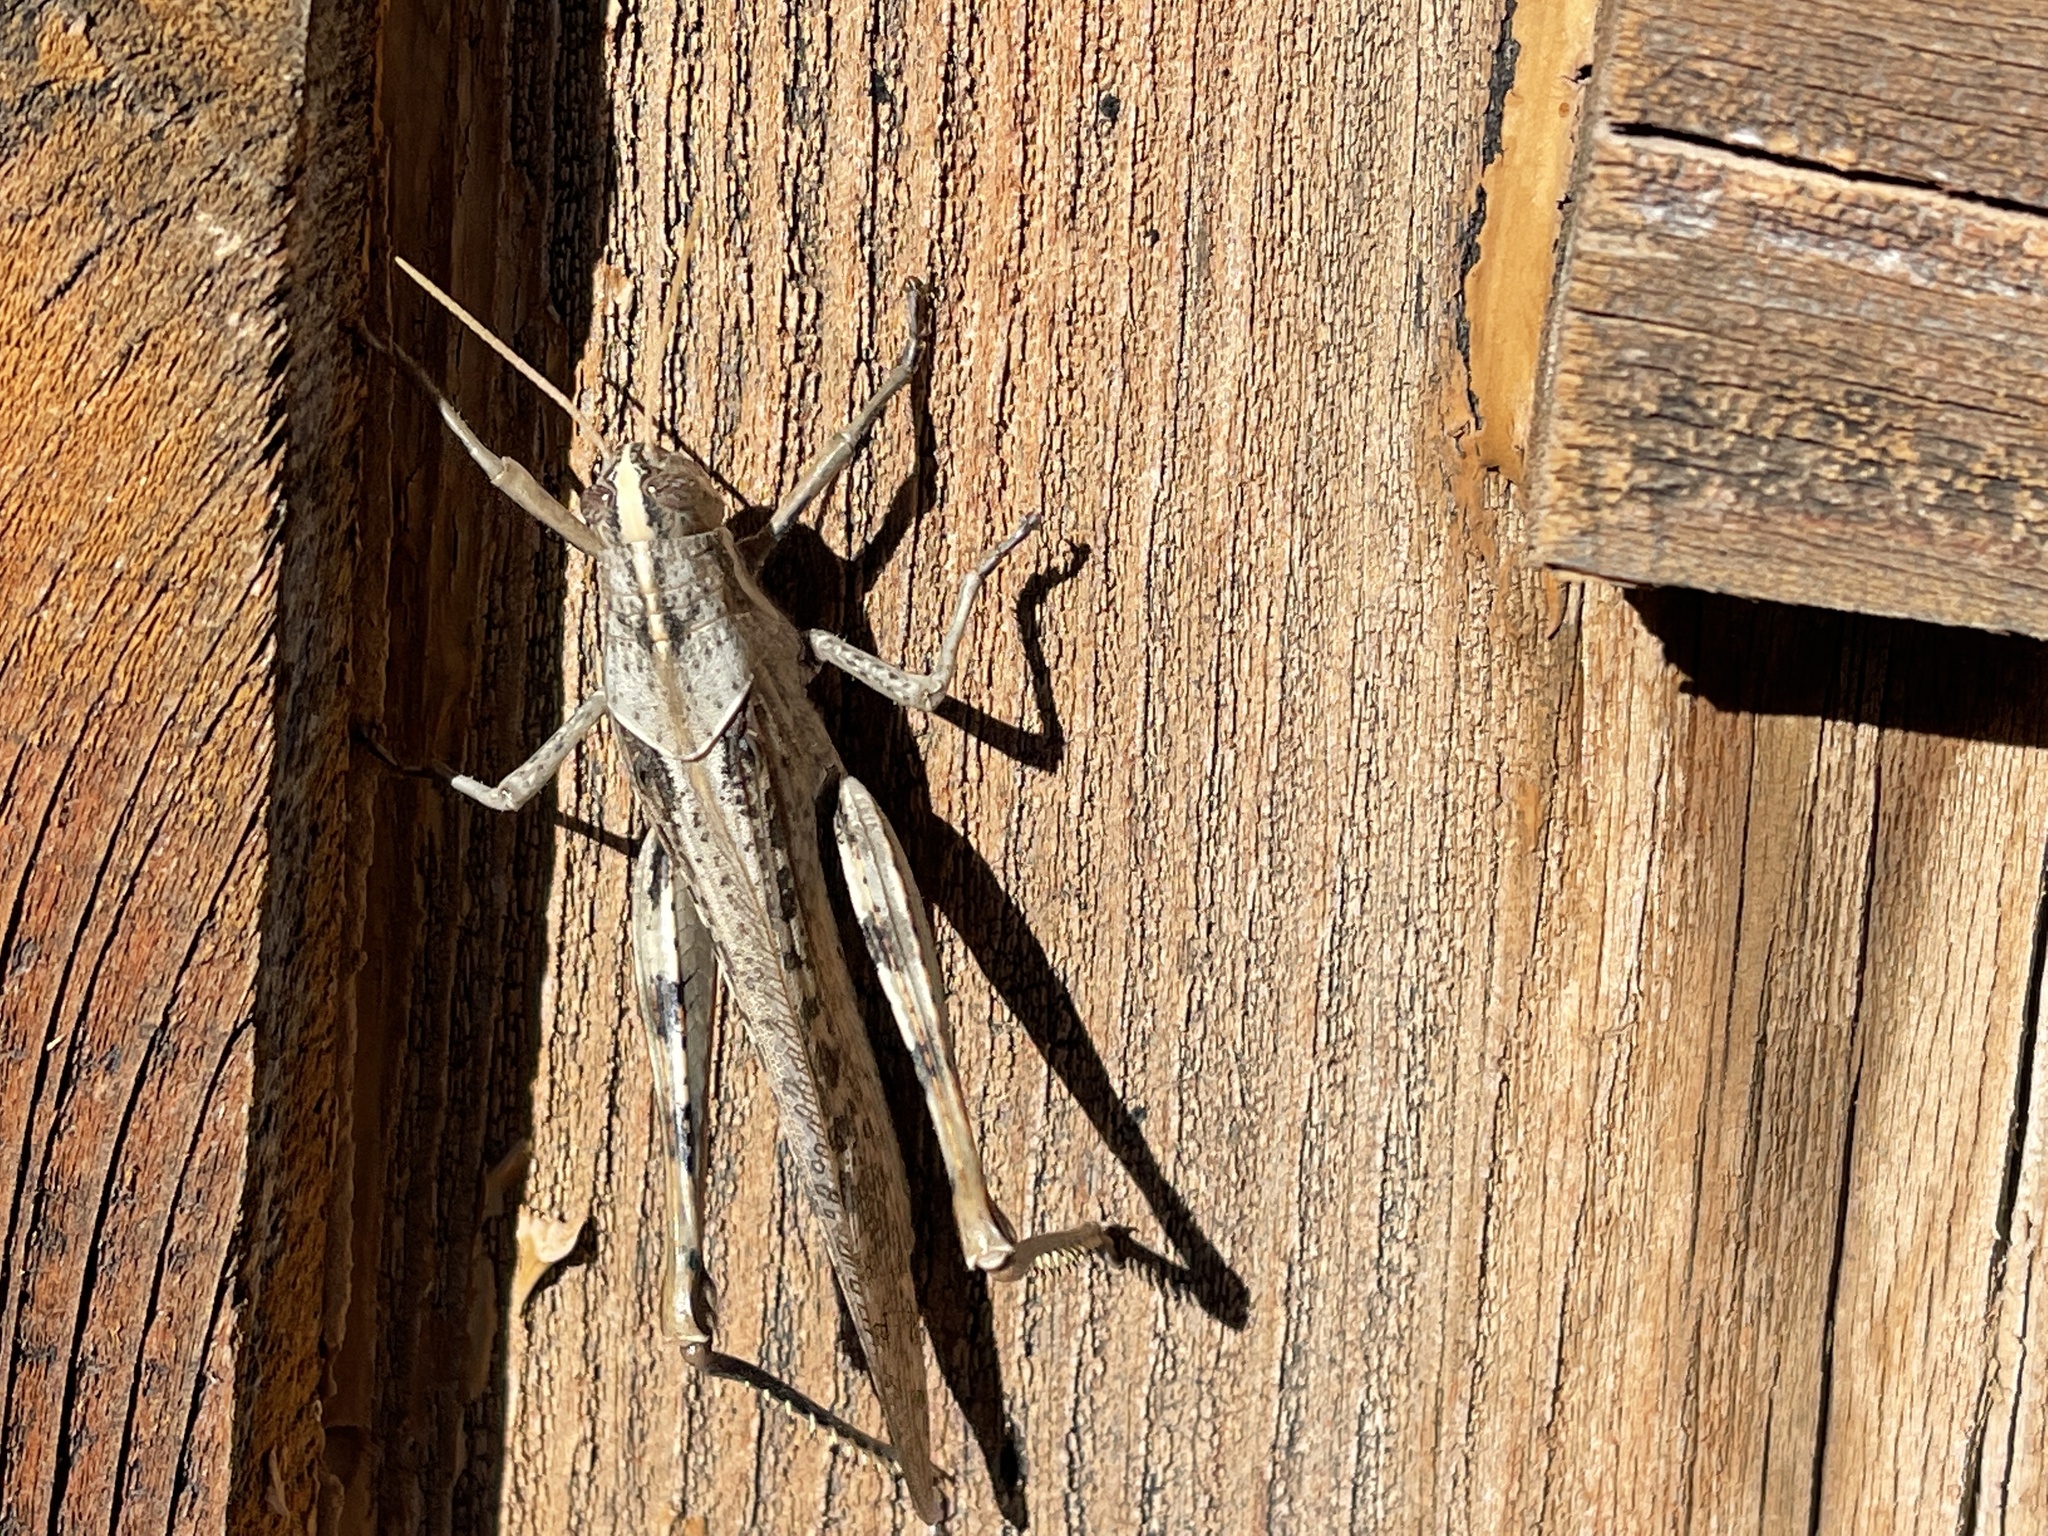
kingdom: Animalia
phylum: Arthropoda
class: Insecta
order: Orthoptera
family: Acrididae
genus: Schistocerca
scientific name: Schistocerca nitens
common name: Vagrant grasshopper
